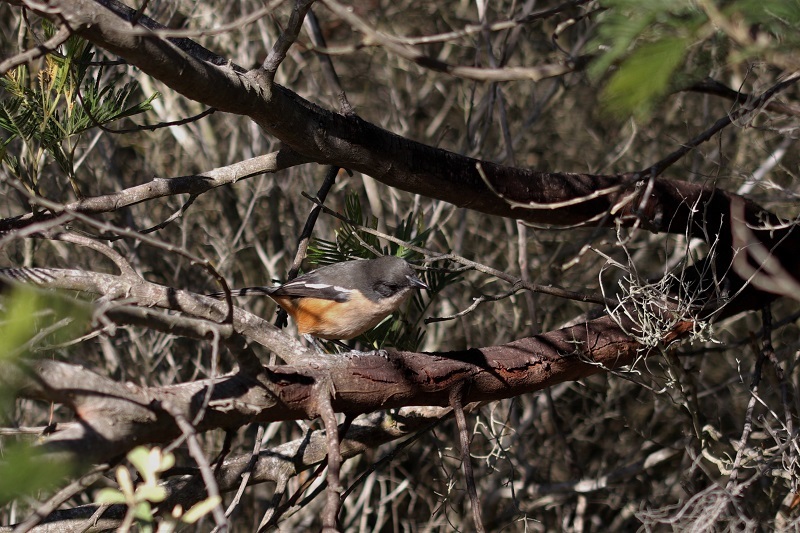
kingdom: Animalia
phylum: Chordata
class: Aves
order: Passeriformes
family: Malaconotidae
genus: Laniarius
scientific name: Laniarius ferrugineus
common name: Southern boubou
